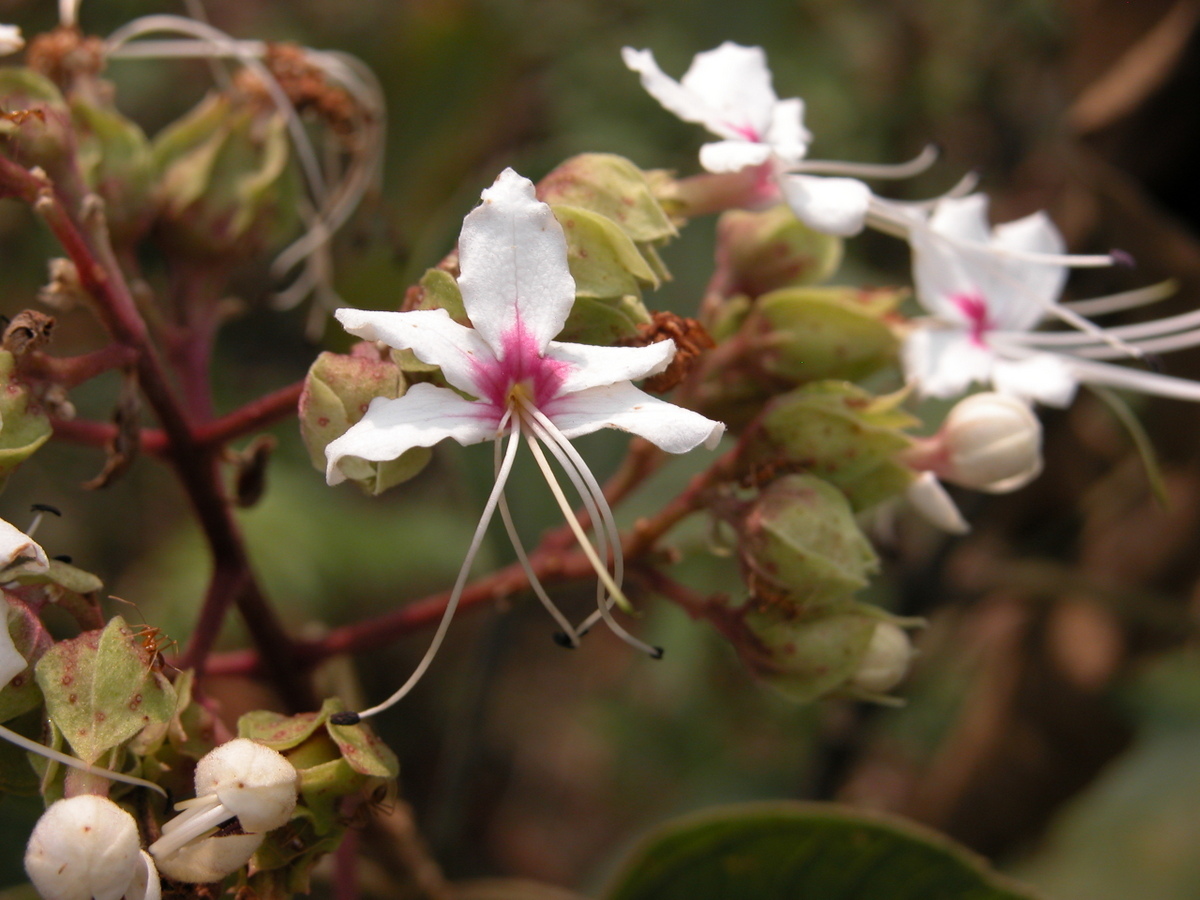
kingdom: Plantae
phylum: Tracheophyta
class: Magnoliopsida
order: Lamiales
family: Lamiaceae
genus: Clerodendrum
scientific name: Clerodendrum infortunatum
